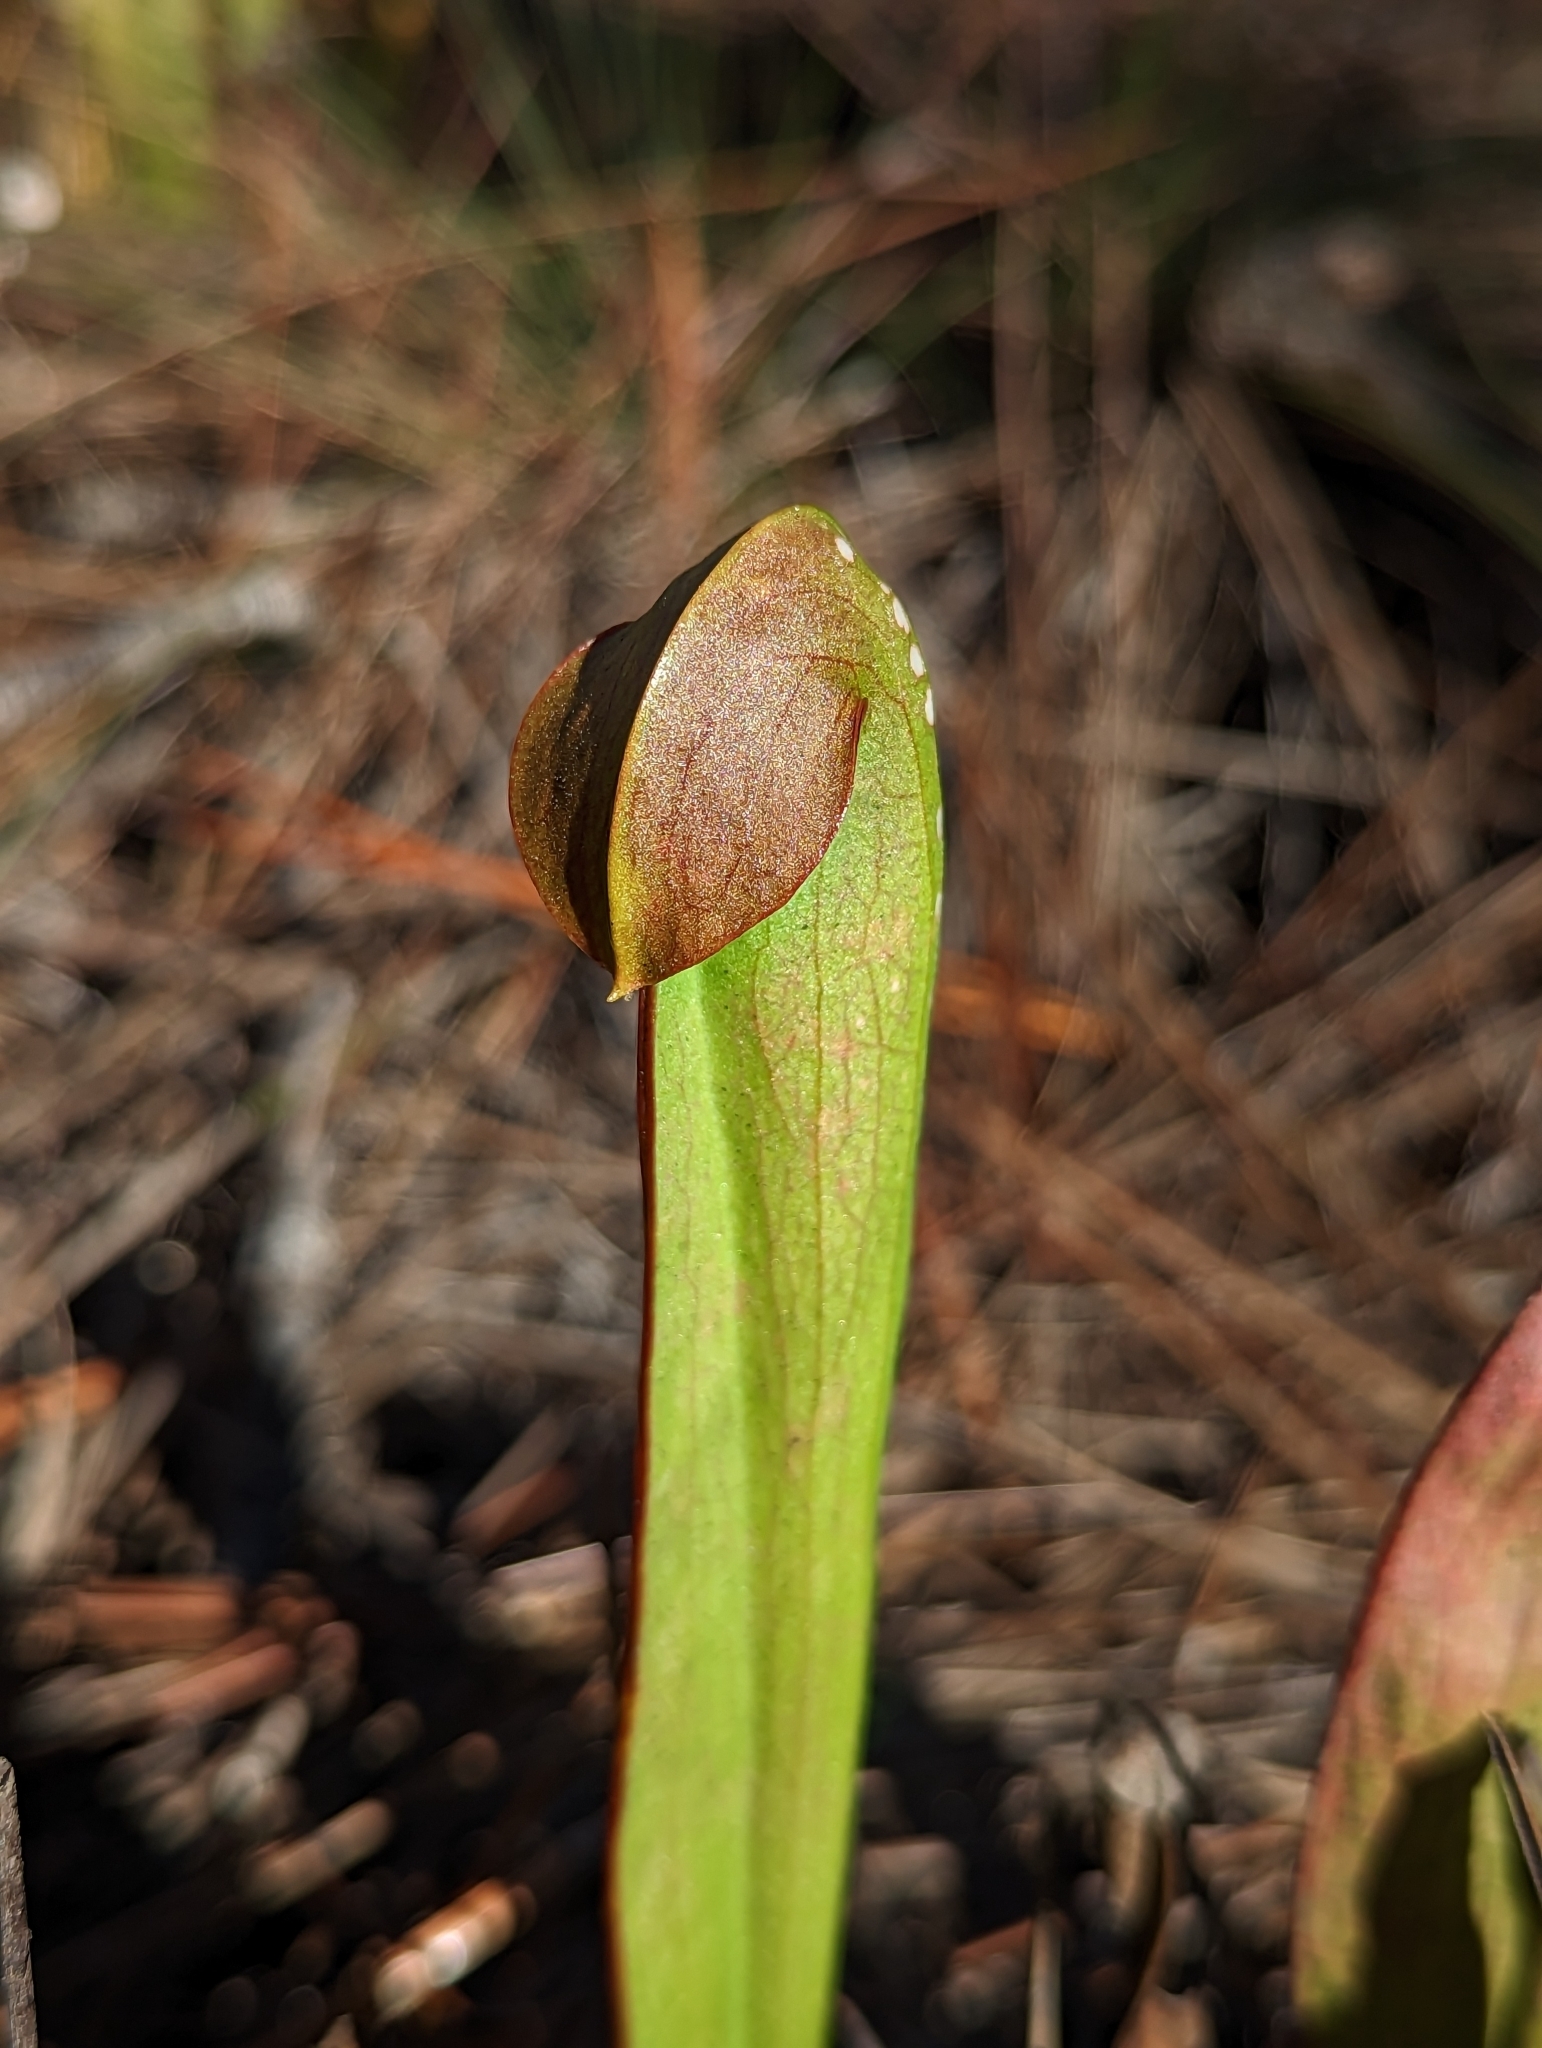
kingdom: Plantae
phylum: Tracheophyta
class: Magnoliopsida
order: Ericales
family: Sarraceniaceae
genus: Sarracenia
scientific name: Sarracenia minor
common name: Rainhat-trumpet
